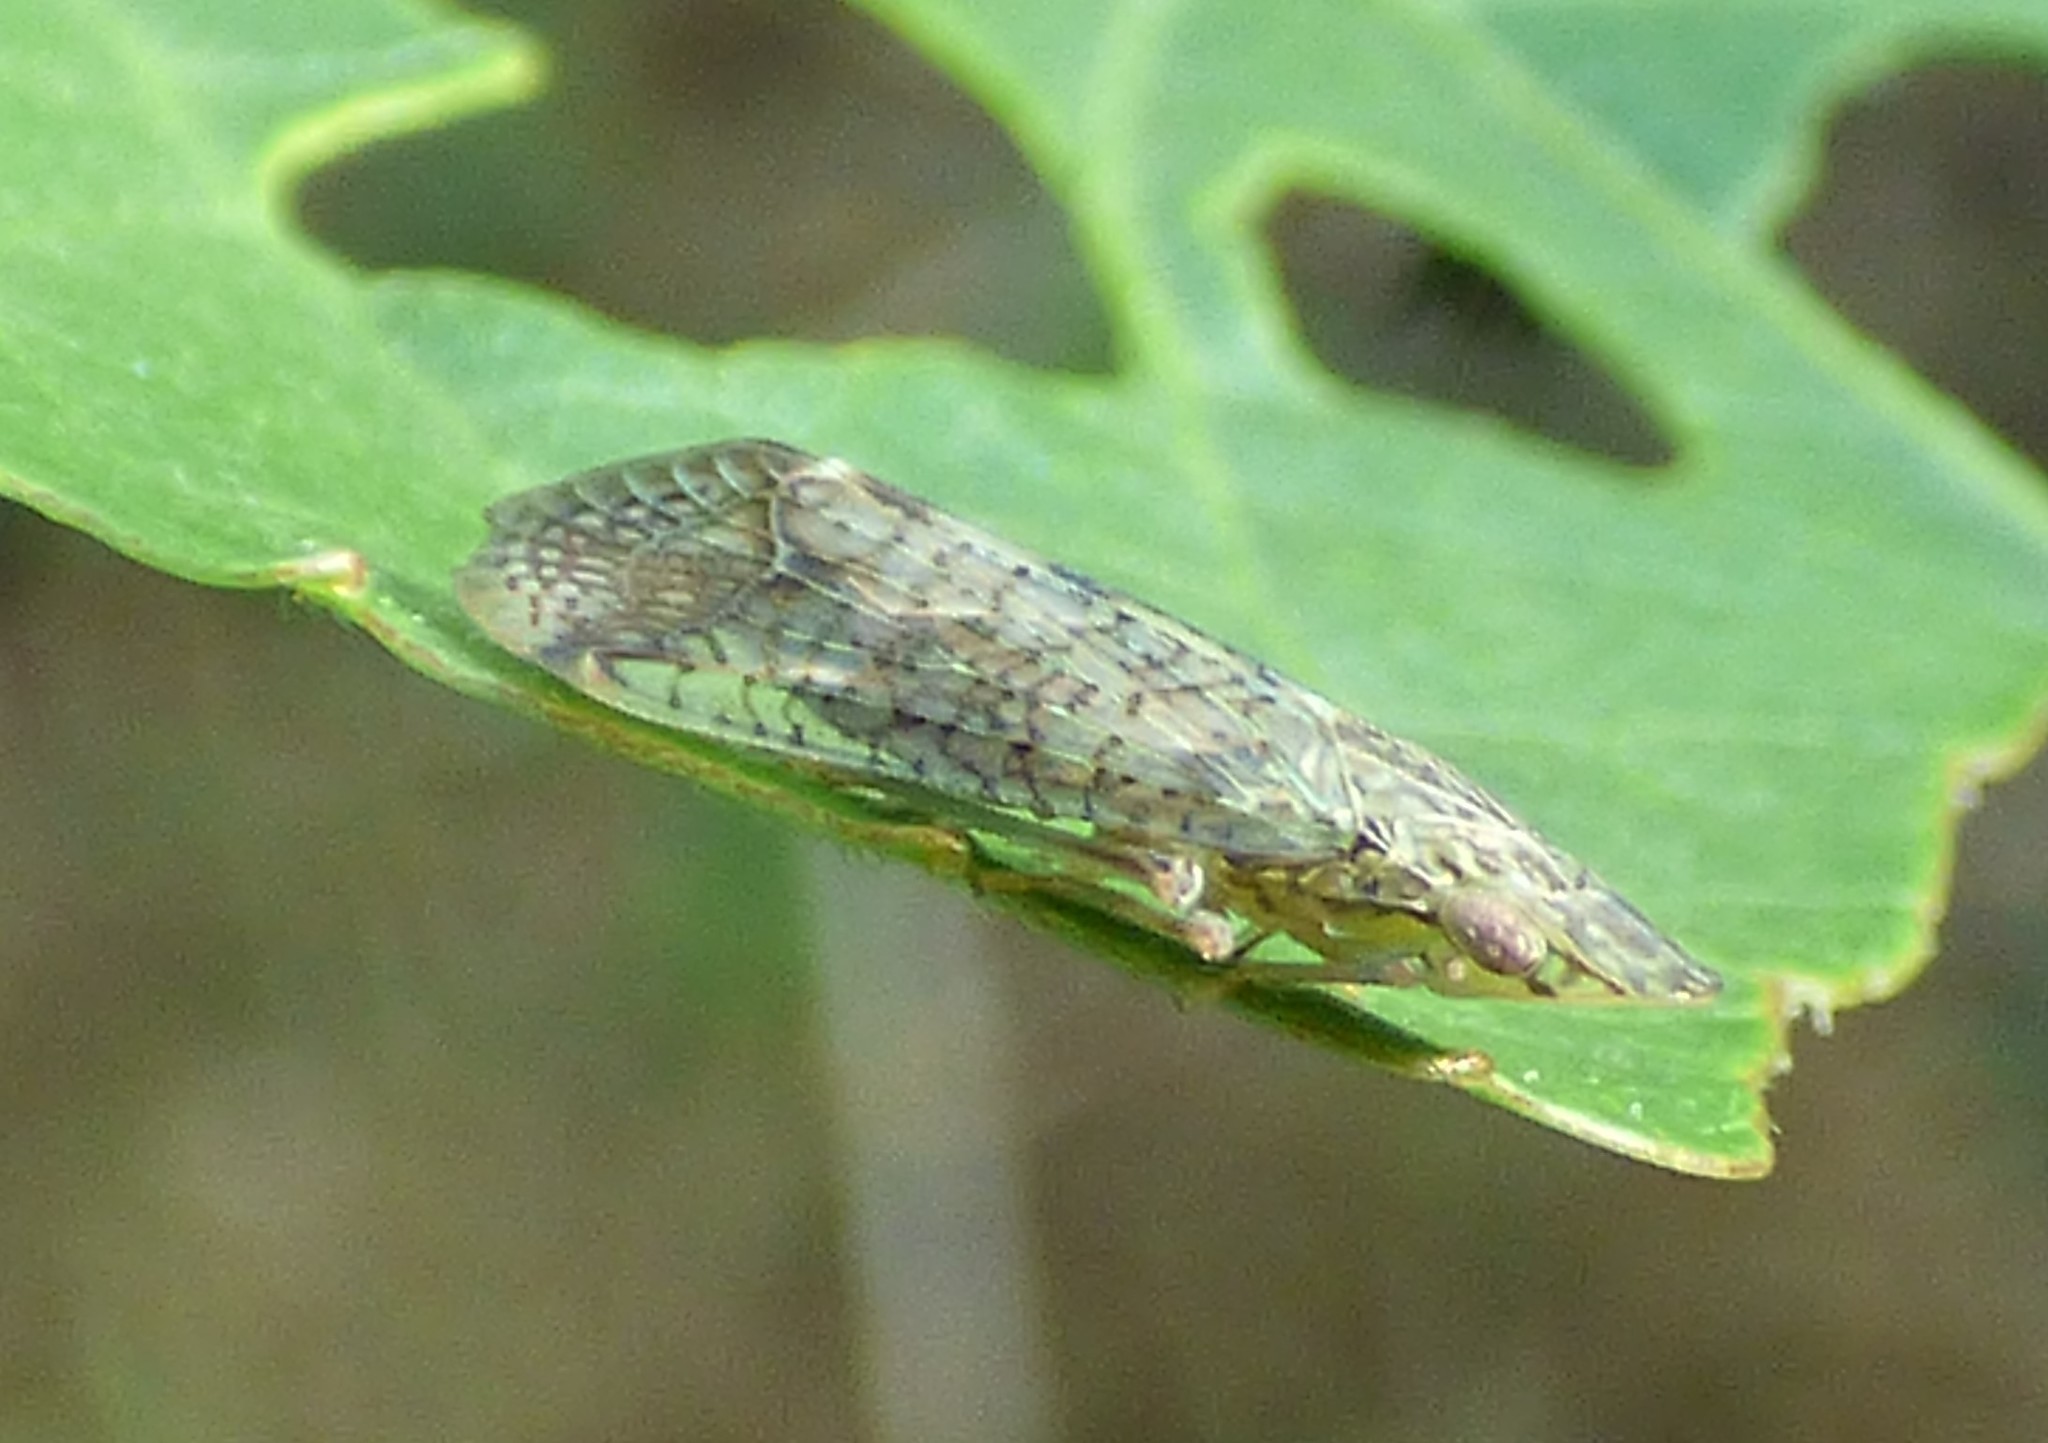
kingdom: Animalia
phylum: Arthropoda
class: Insecta
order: Hemiptera
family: Tropiduchidae
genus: Pelitropis
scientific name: Pelitropis rotulata
